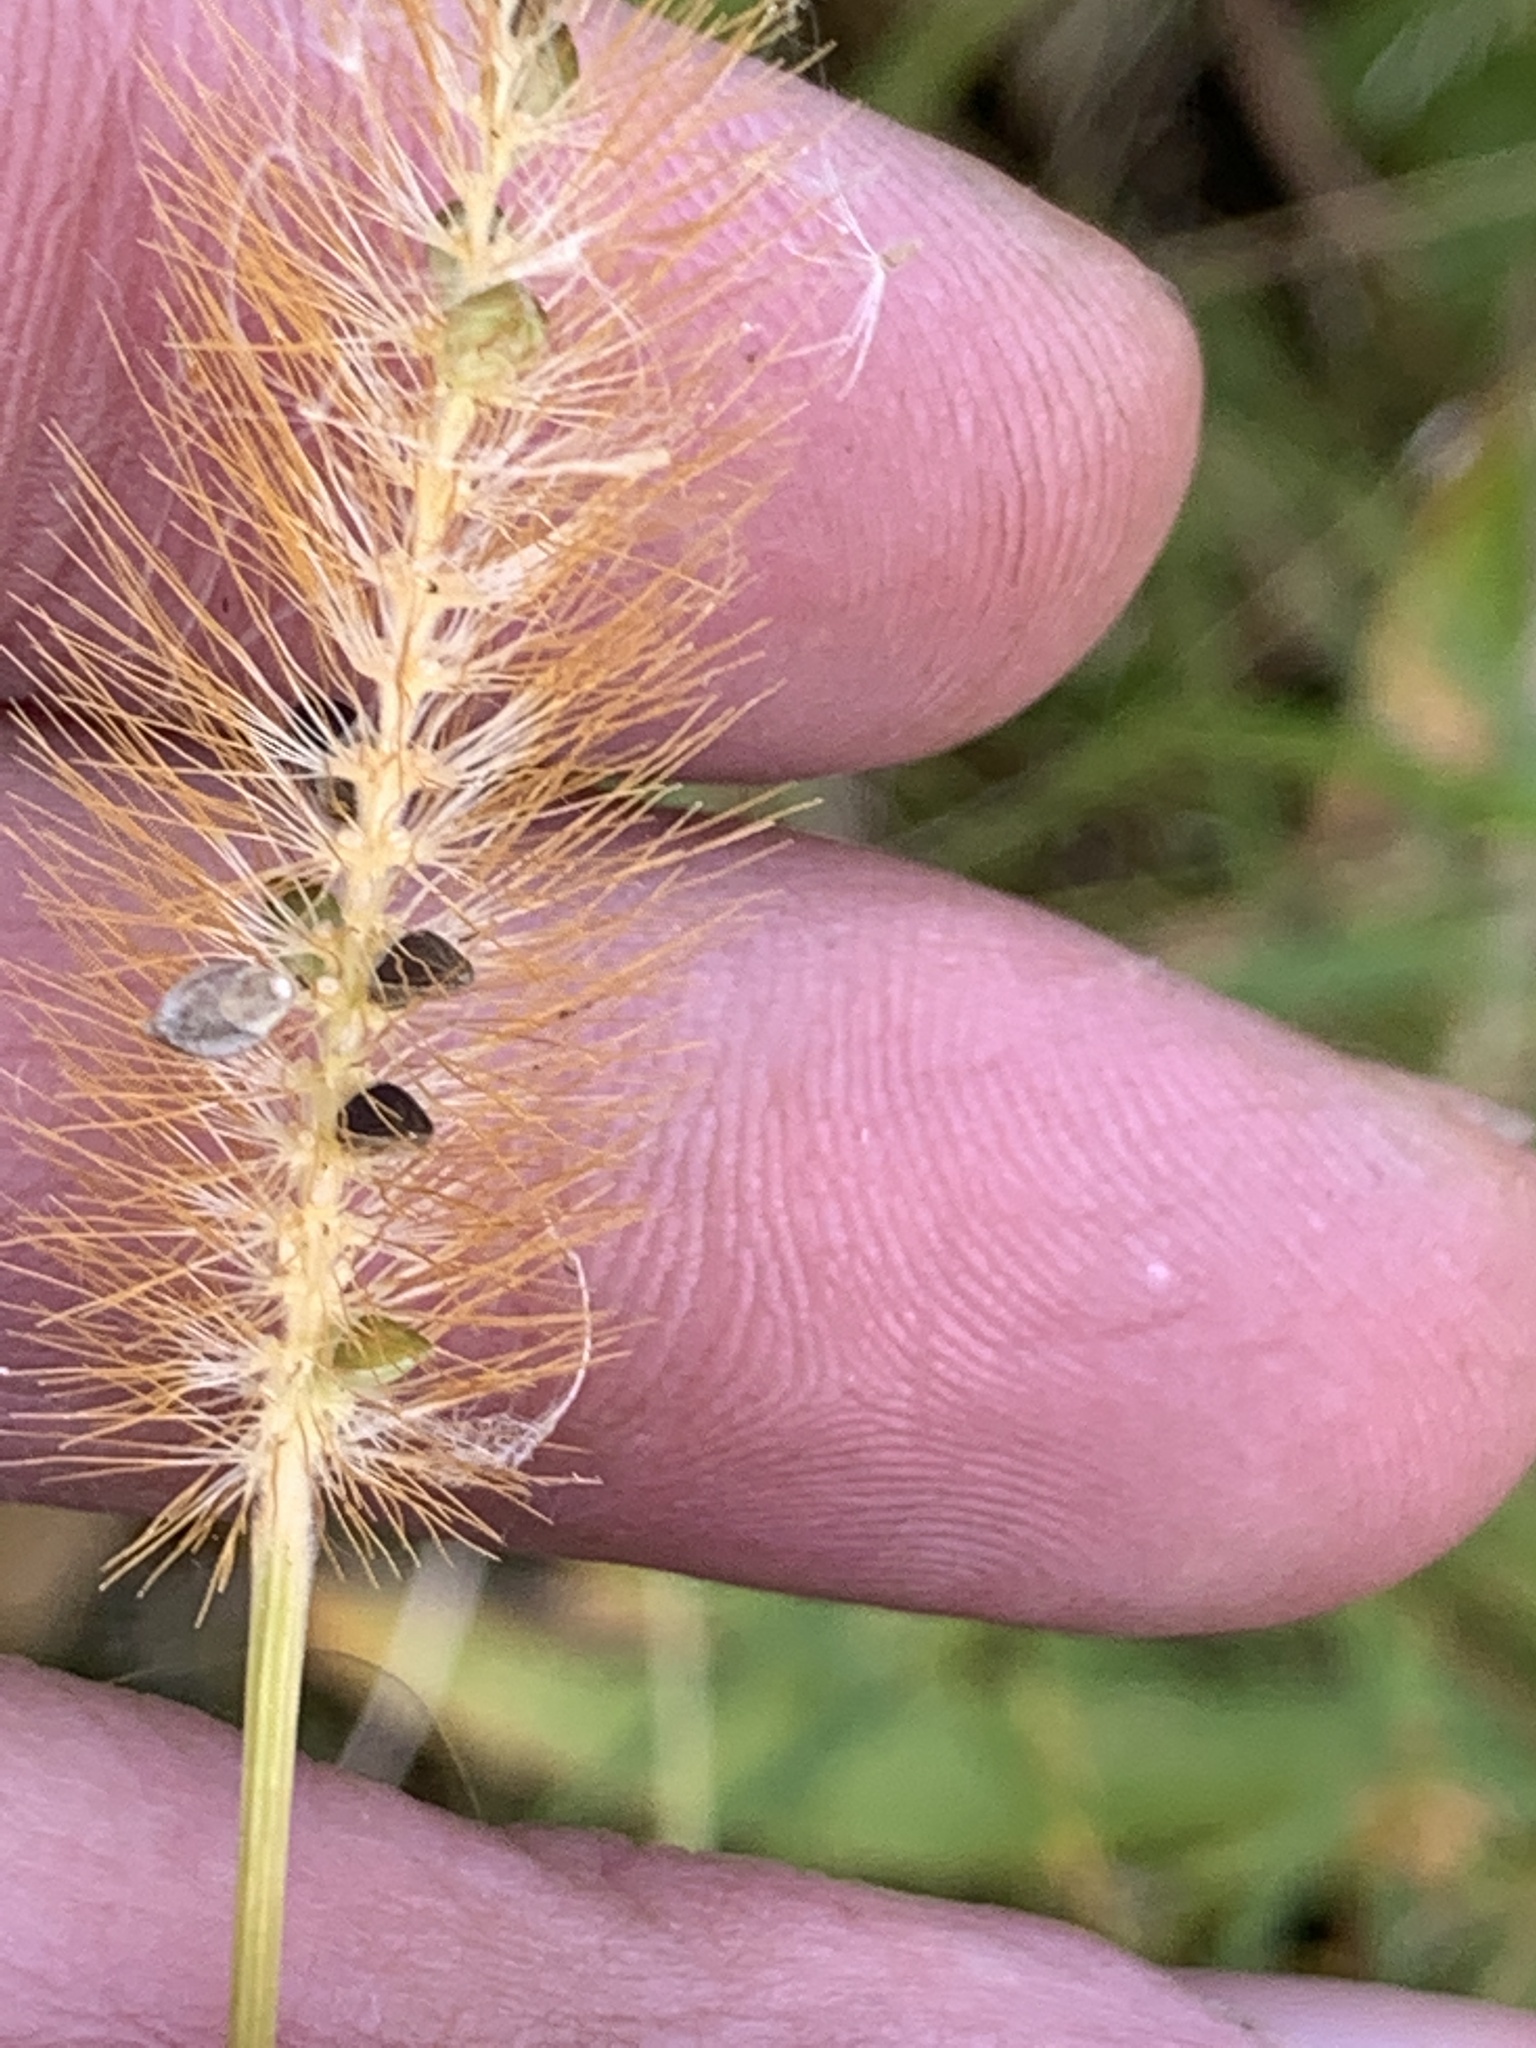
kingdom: Plantae
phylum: Tracheophyta
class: Liliopsida
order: Poales
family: Poaceae
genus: Setaria
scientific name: Setaria pumila
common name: Yellow bristle-grass
